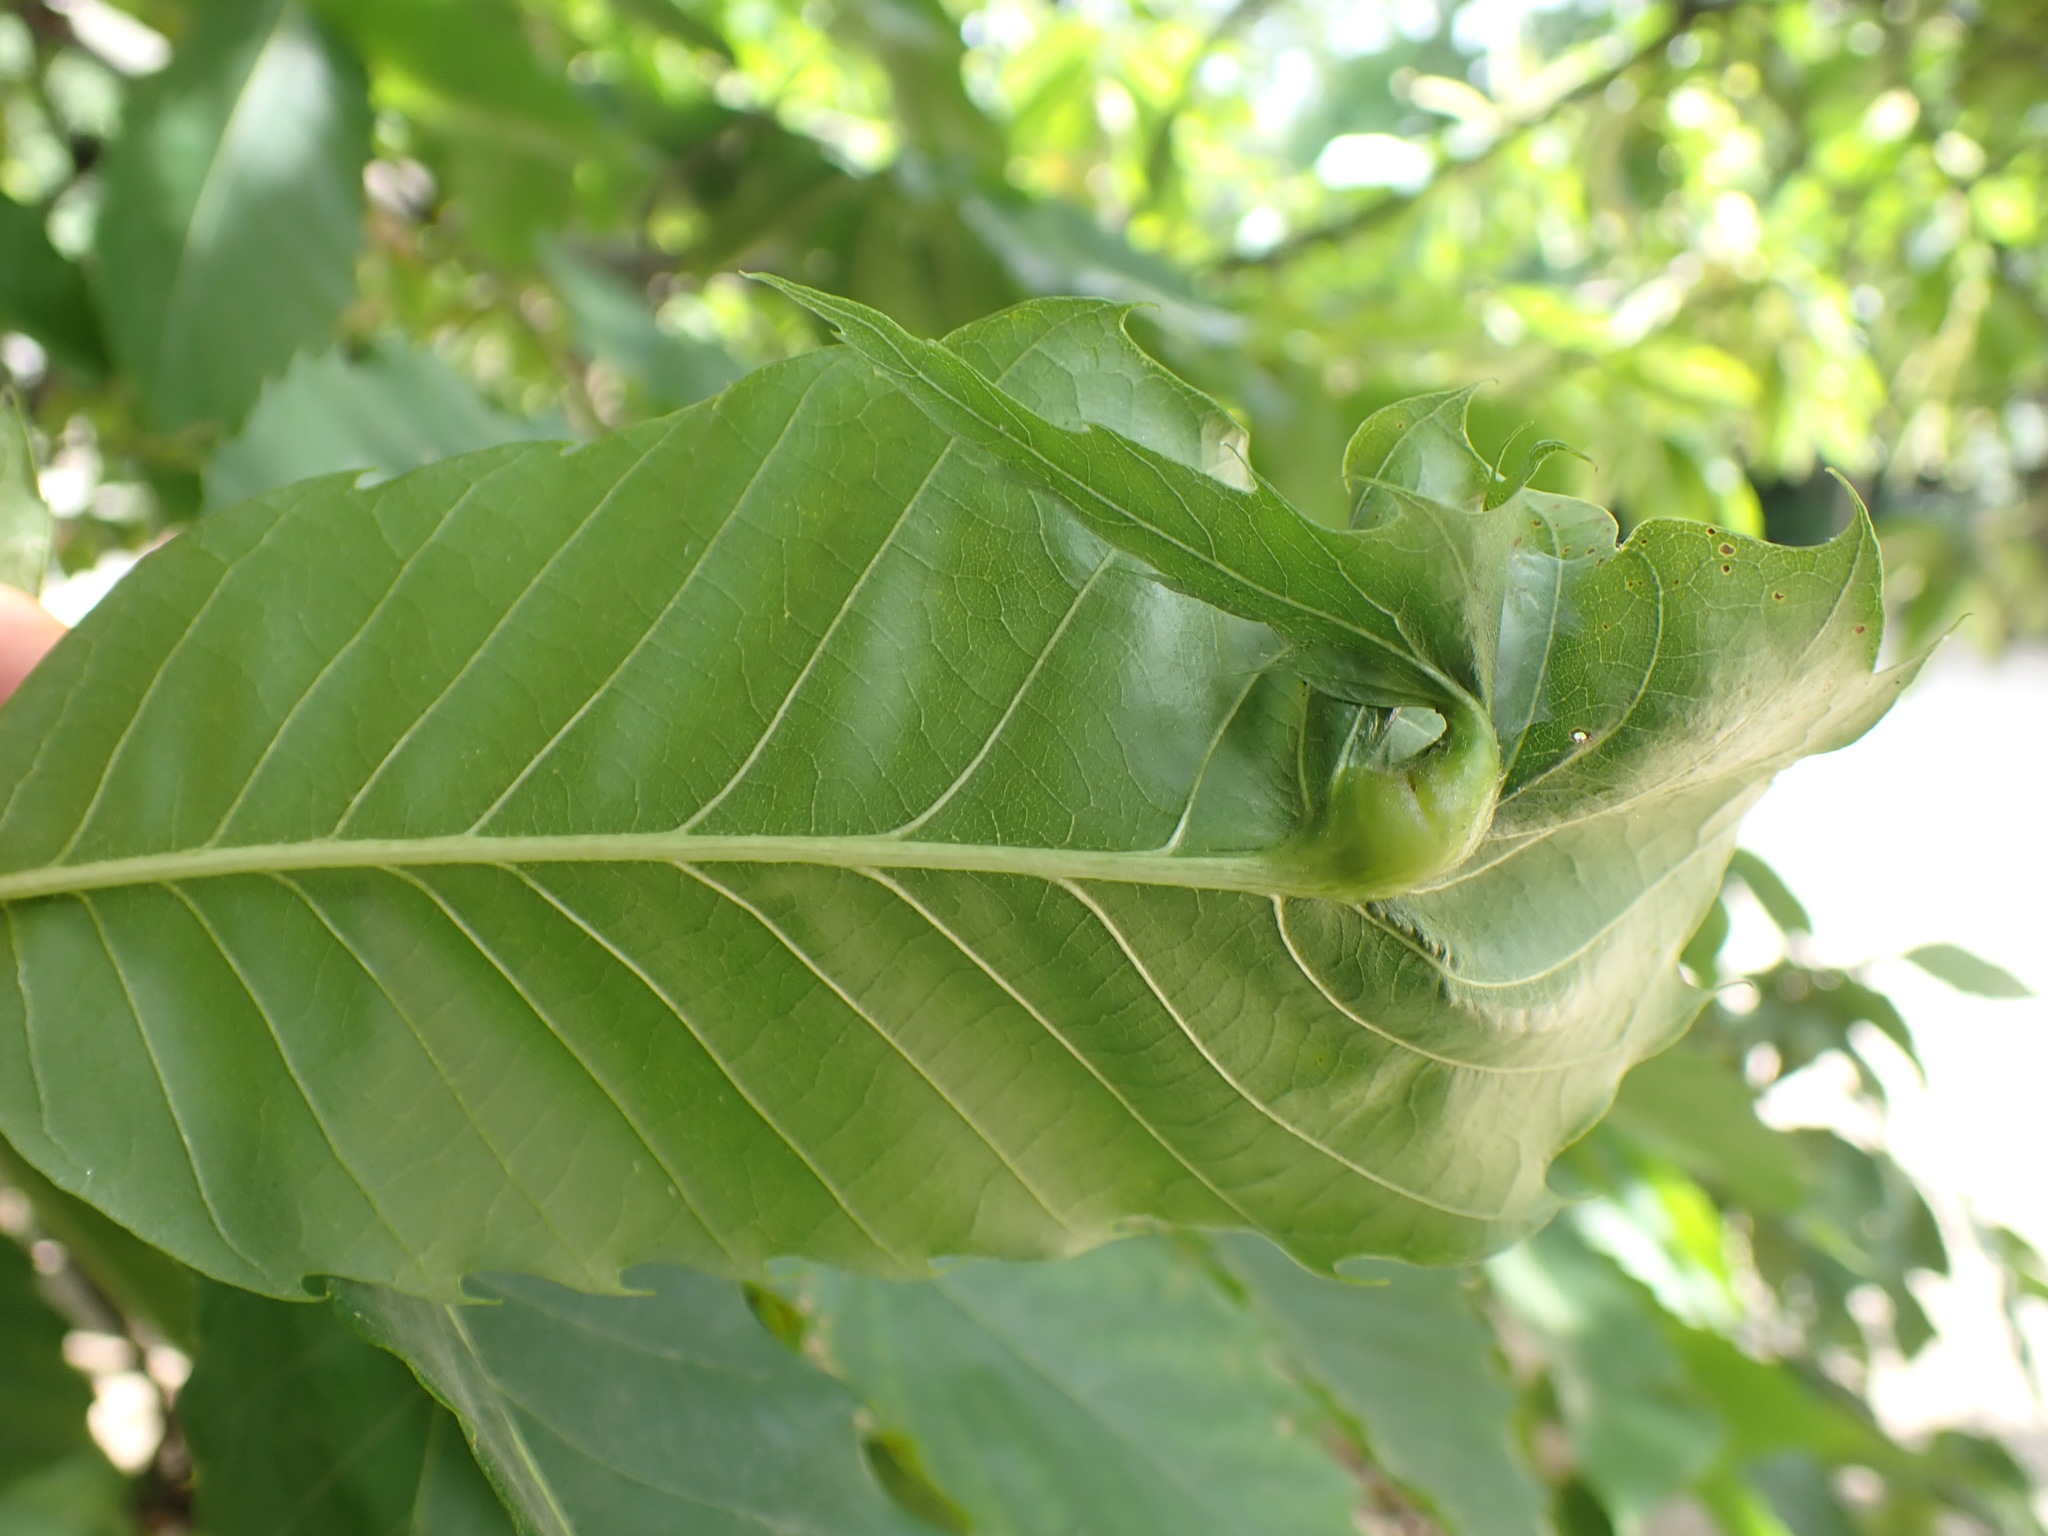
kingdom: Animalia
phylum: Arthropoda
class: Insecta
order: Hymenoptera
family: Cynipidae
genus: Dryocosmus
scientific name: Dryocosmus kuriphilus
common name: Asian chestnut gall wasp
